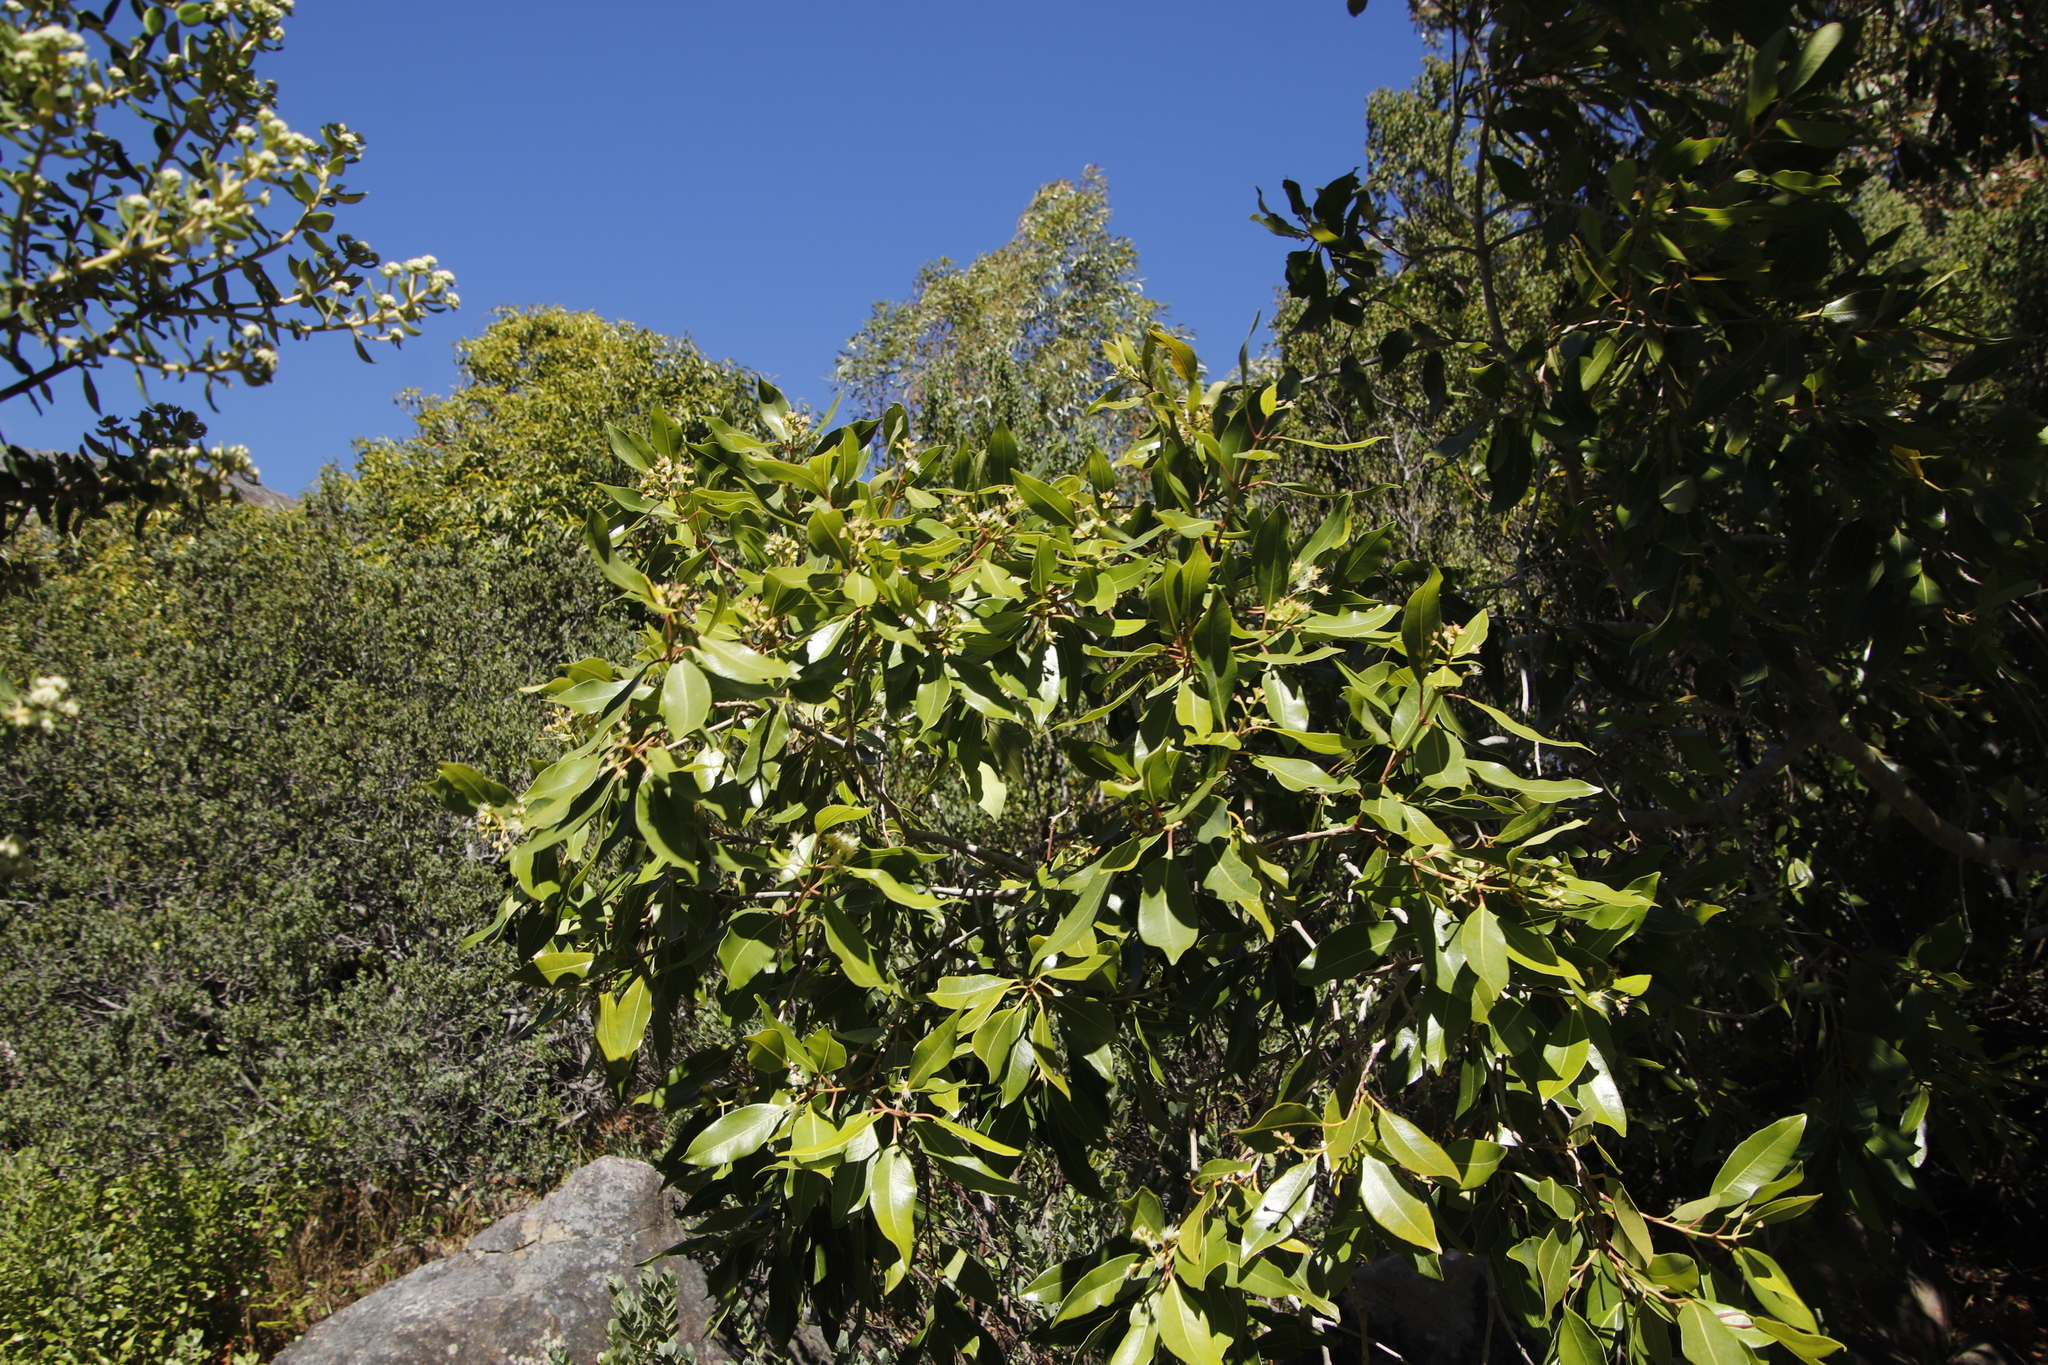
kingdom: Plantae
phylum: Tracheophyta
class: Magnoliopsida
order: Myrtales
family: Myrtaceae
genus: Syzygium
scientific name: Syzygium guineense
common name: Water-pear
